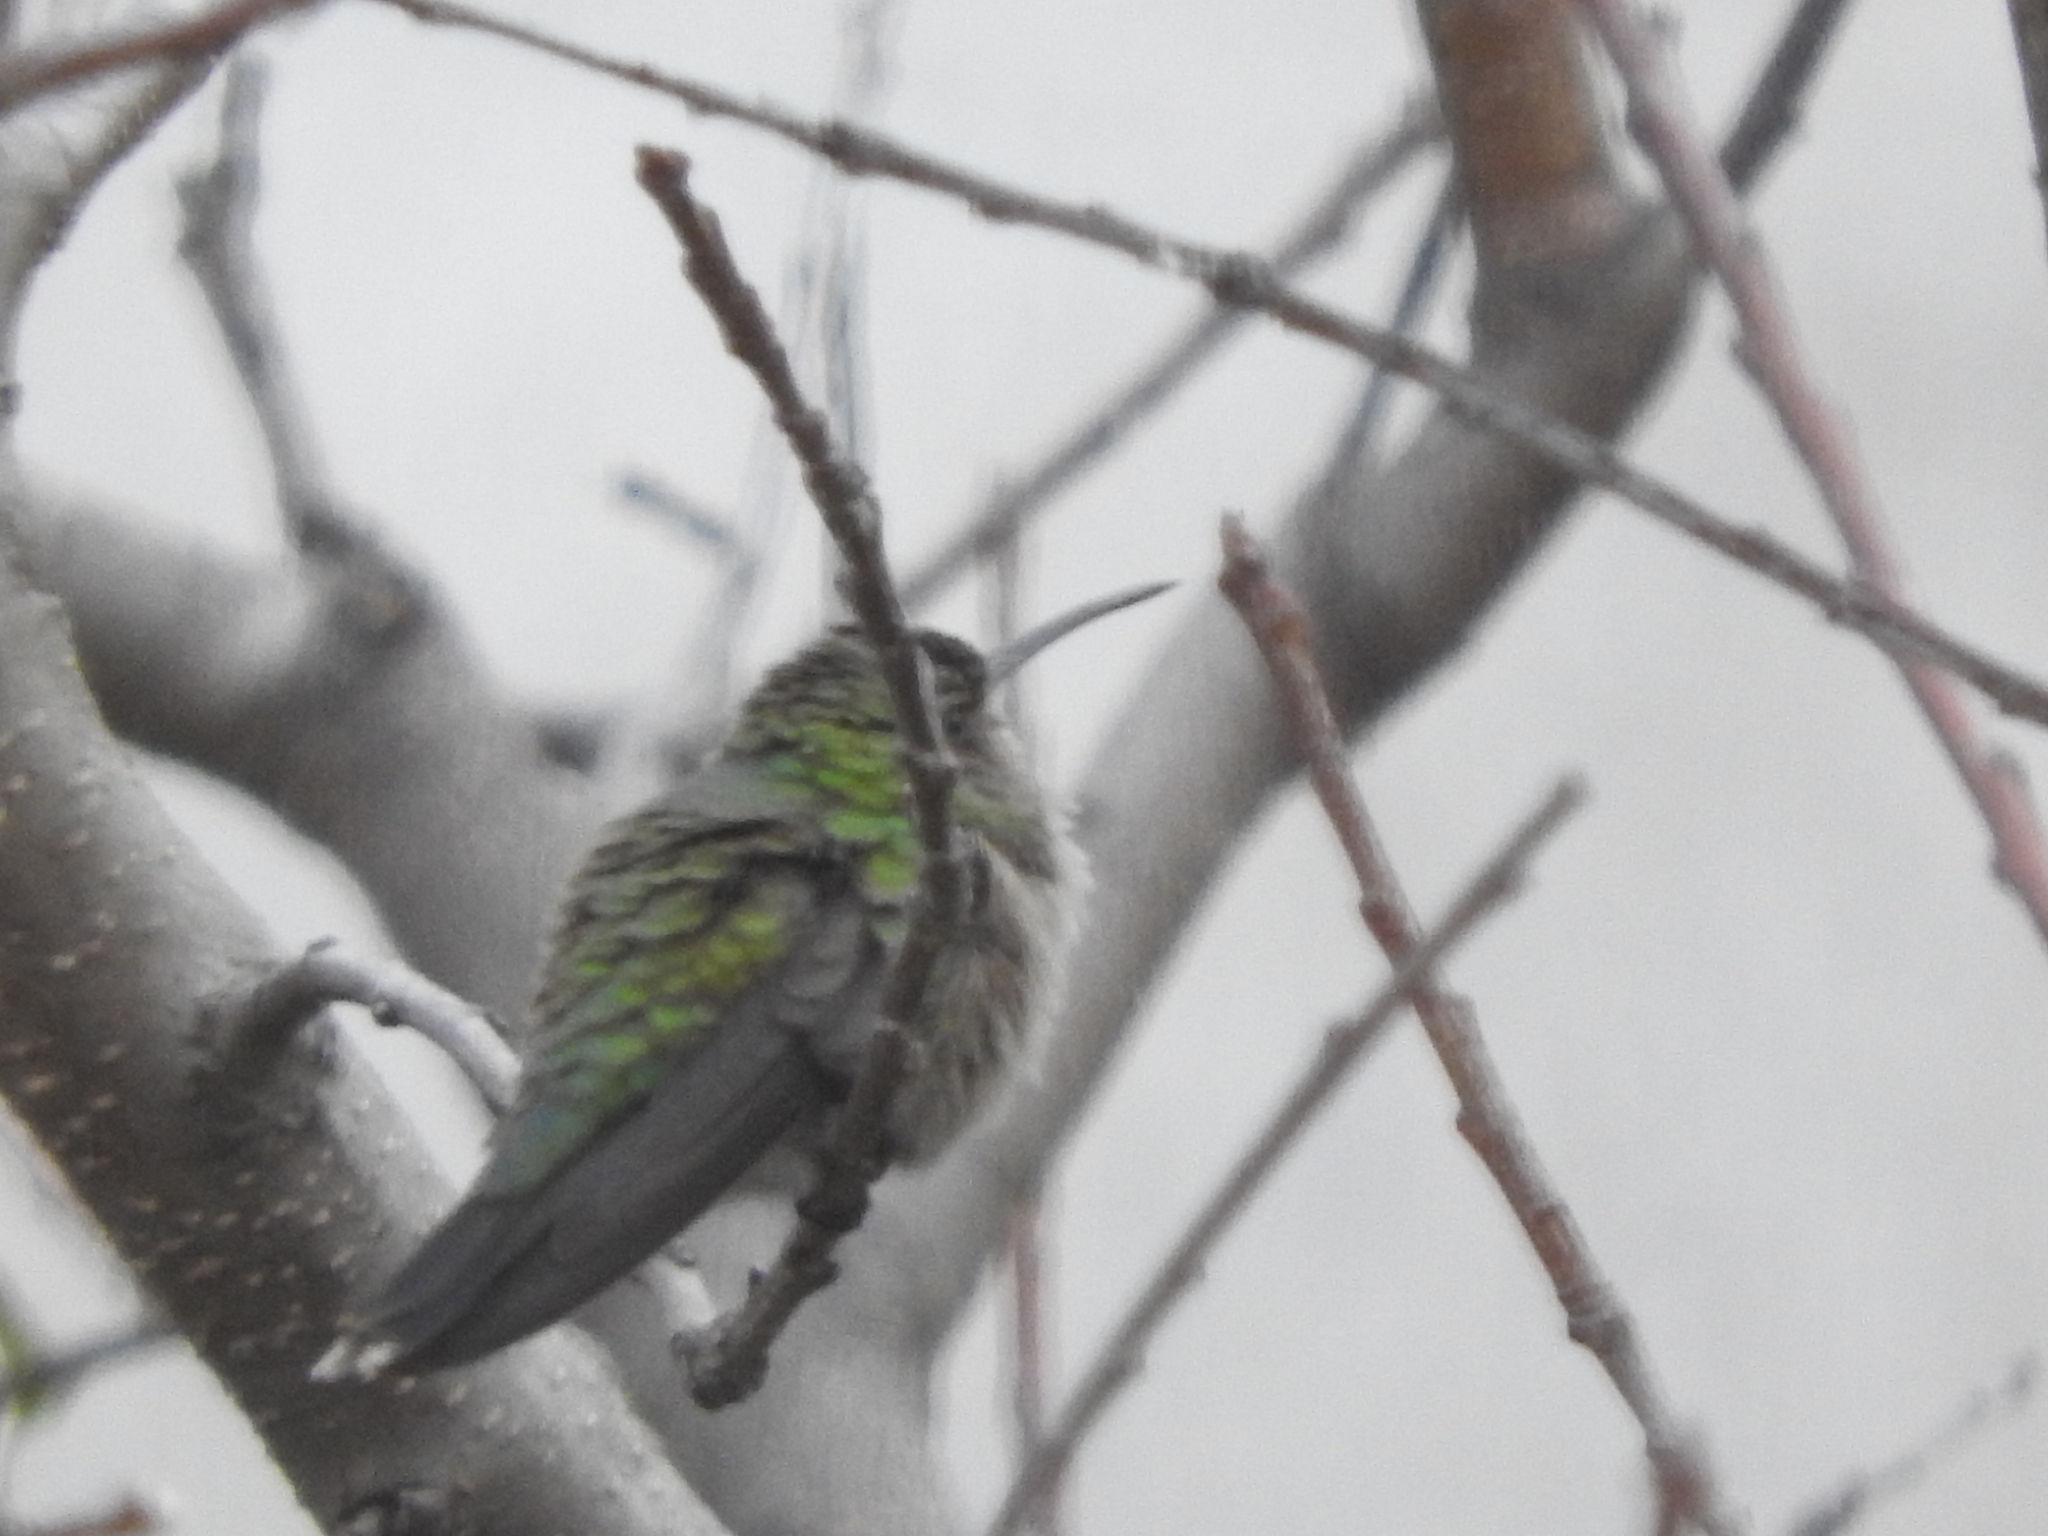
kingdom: Animalia
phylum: Chordata
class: Aves
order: Apodiformes
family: Trochilidae
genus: Cynanthus
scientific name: Cynanthus latirostris
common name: Broad-billed hummingbird
